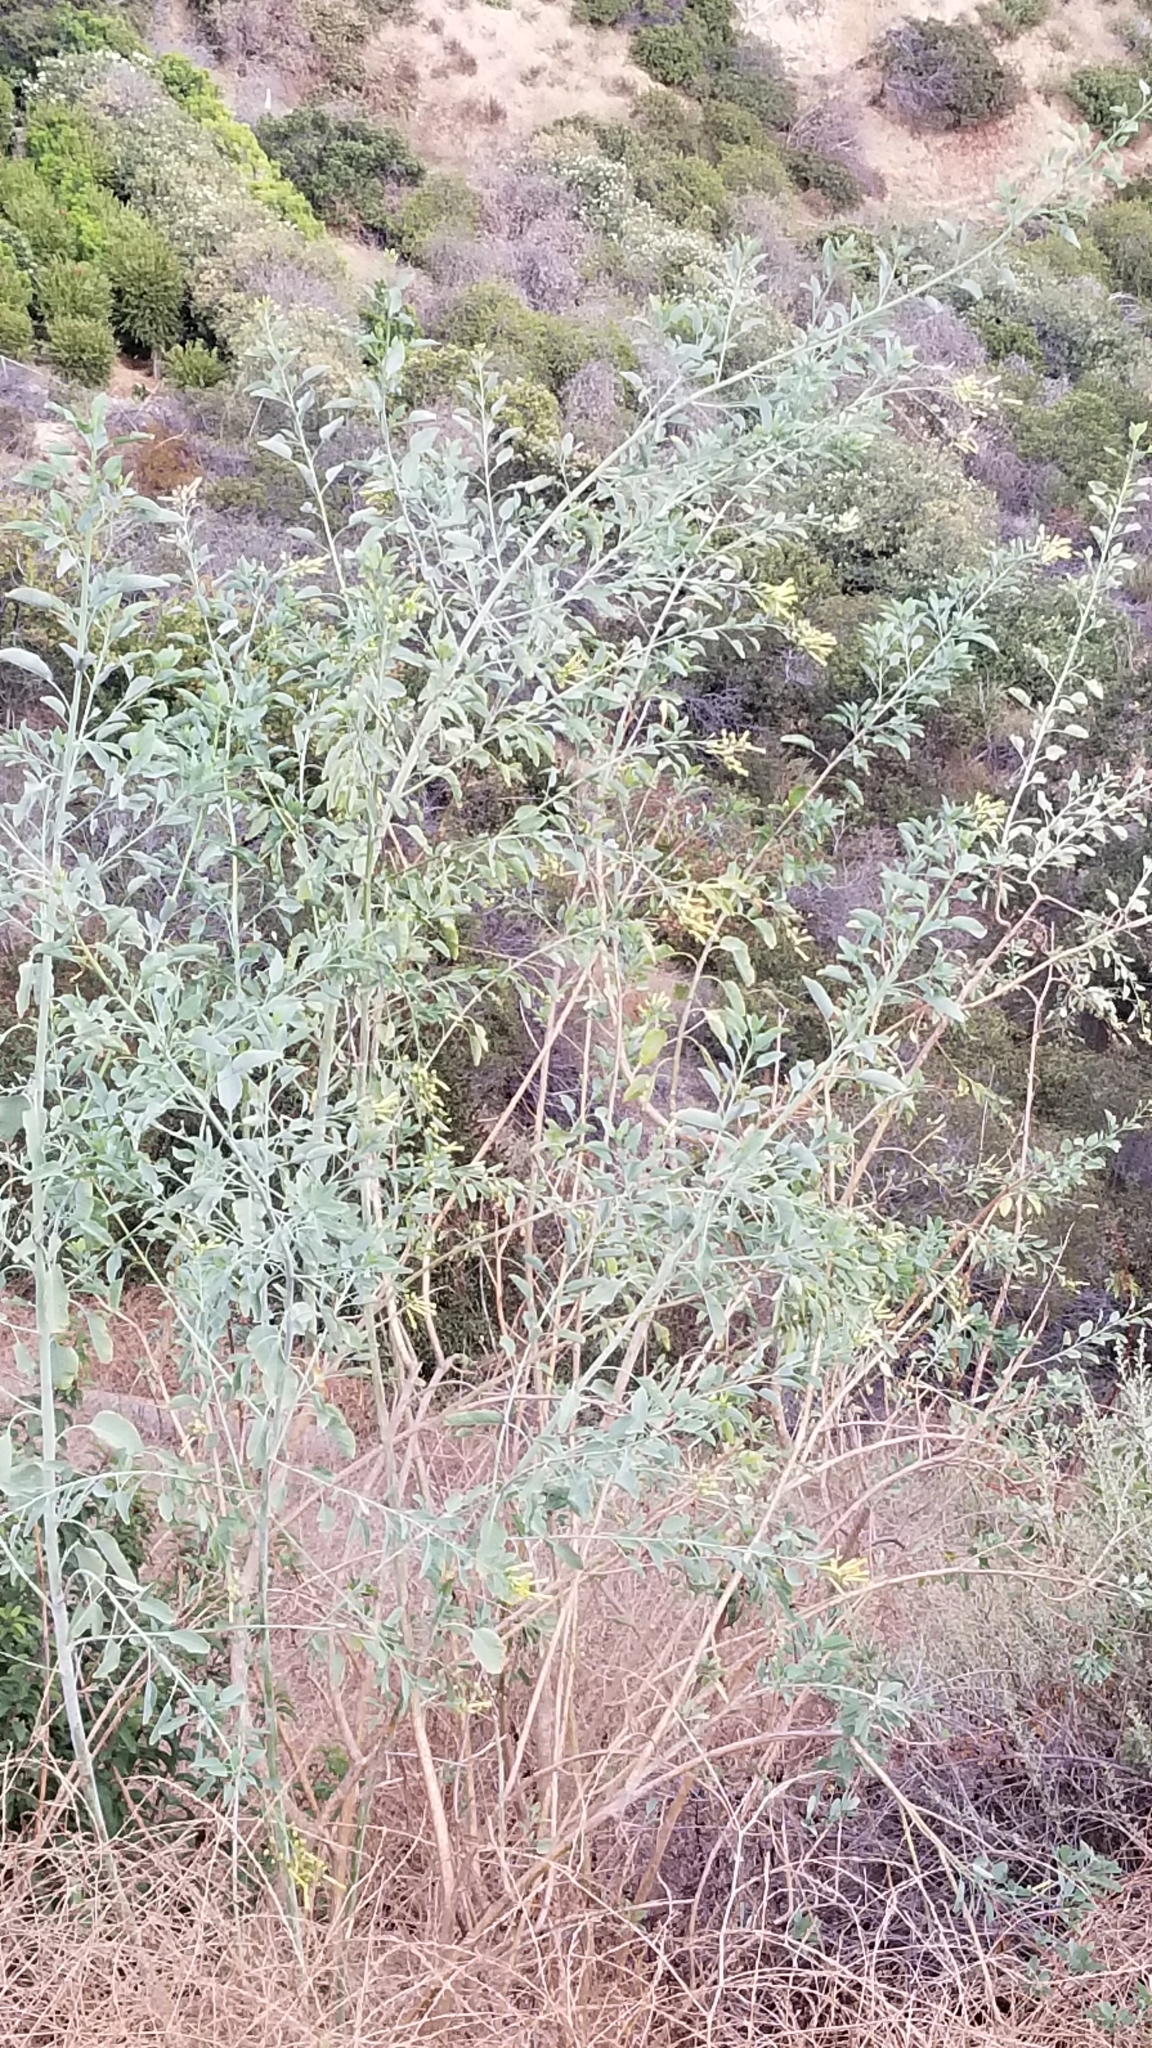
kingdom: Plantae
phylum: Tracheophyta
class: Magnoliopsida
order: Solanales
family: Solanaceae
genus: Nicotiana
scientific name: Nicotiana glauca
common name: Tree tobacco
